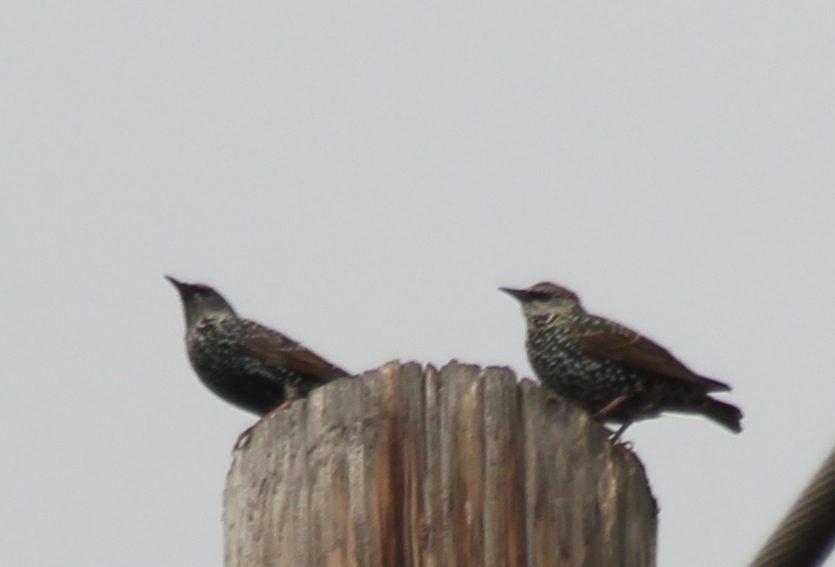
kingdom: Animalia
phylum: Chordata
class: Aves
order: Passeriformes
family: Sturnidae
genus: Sturnus
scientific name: Sturnus vulgaris
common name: Common starling
